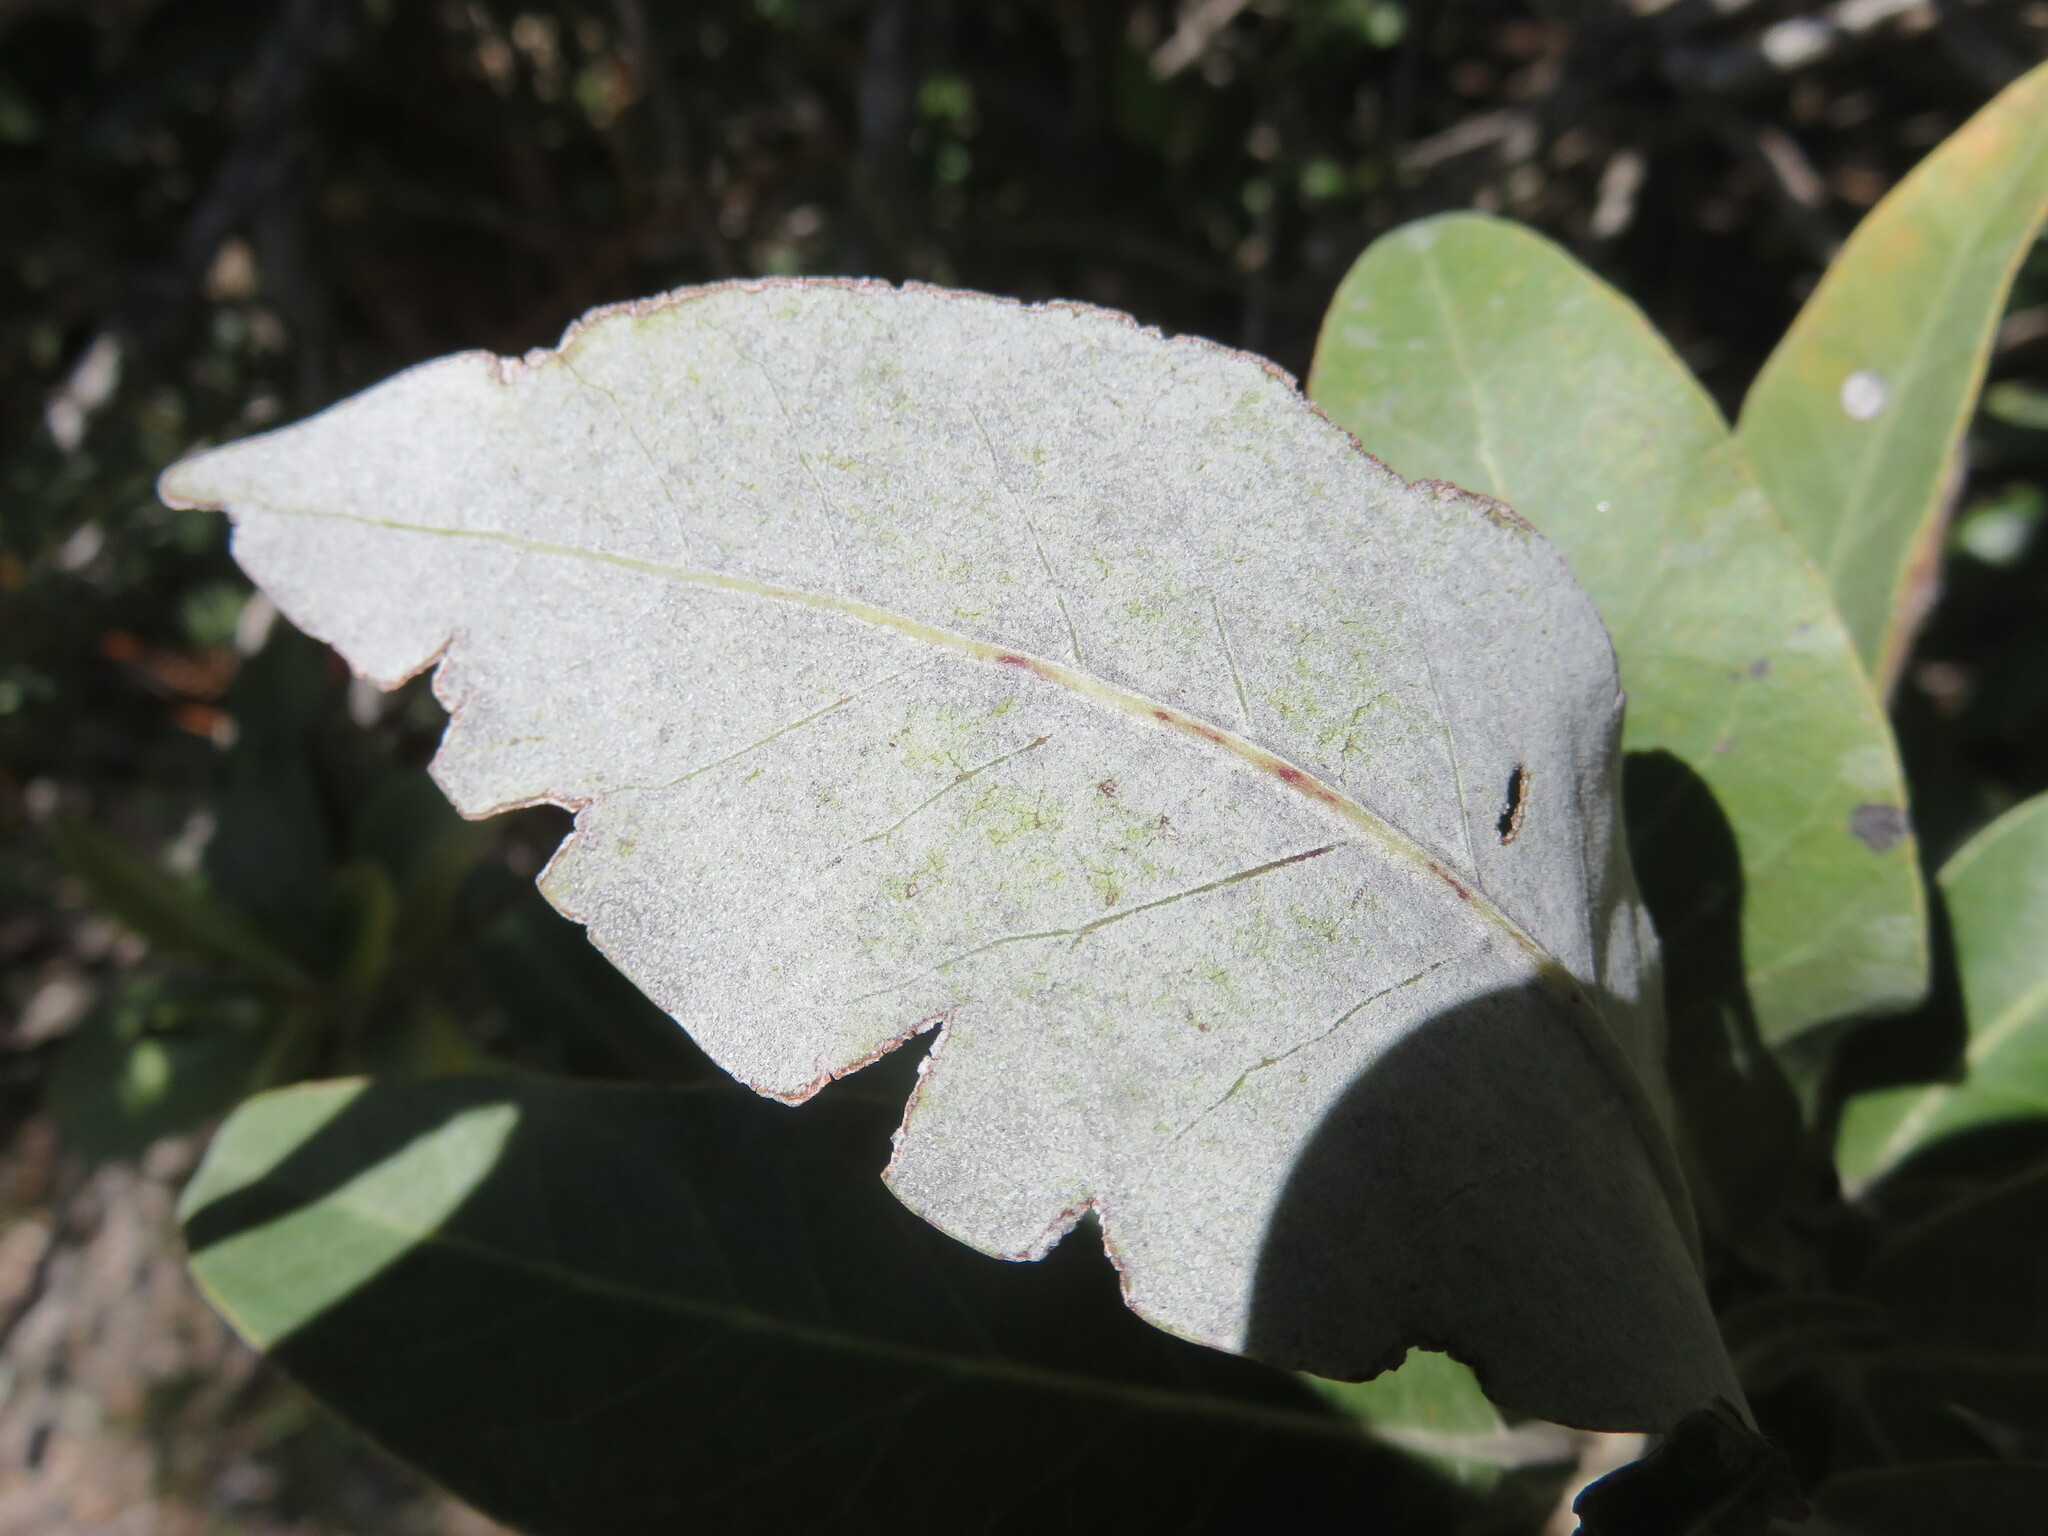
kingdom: Plantae
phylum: Tracheophyta
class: Magnoliopsida
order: Asterales
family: Asteraceae
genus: Olearia
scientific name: Olearia avicenniifolia
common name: Mangrove-leaf daisybush
